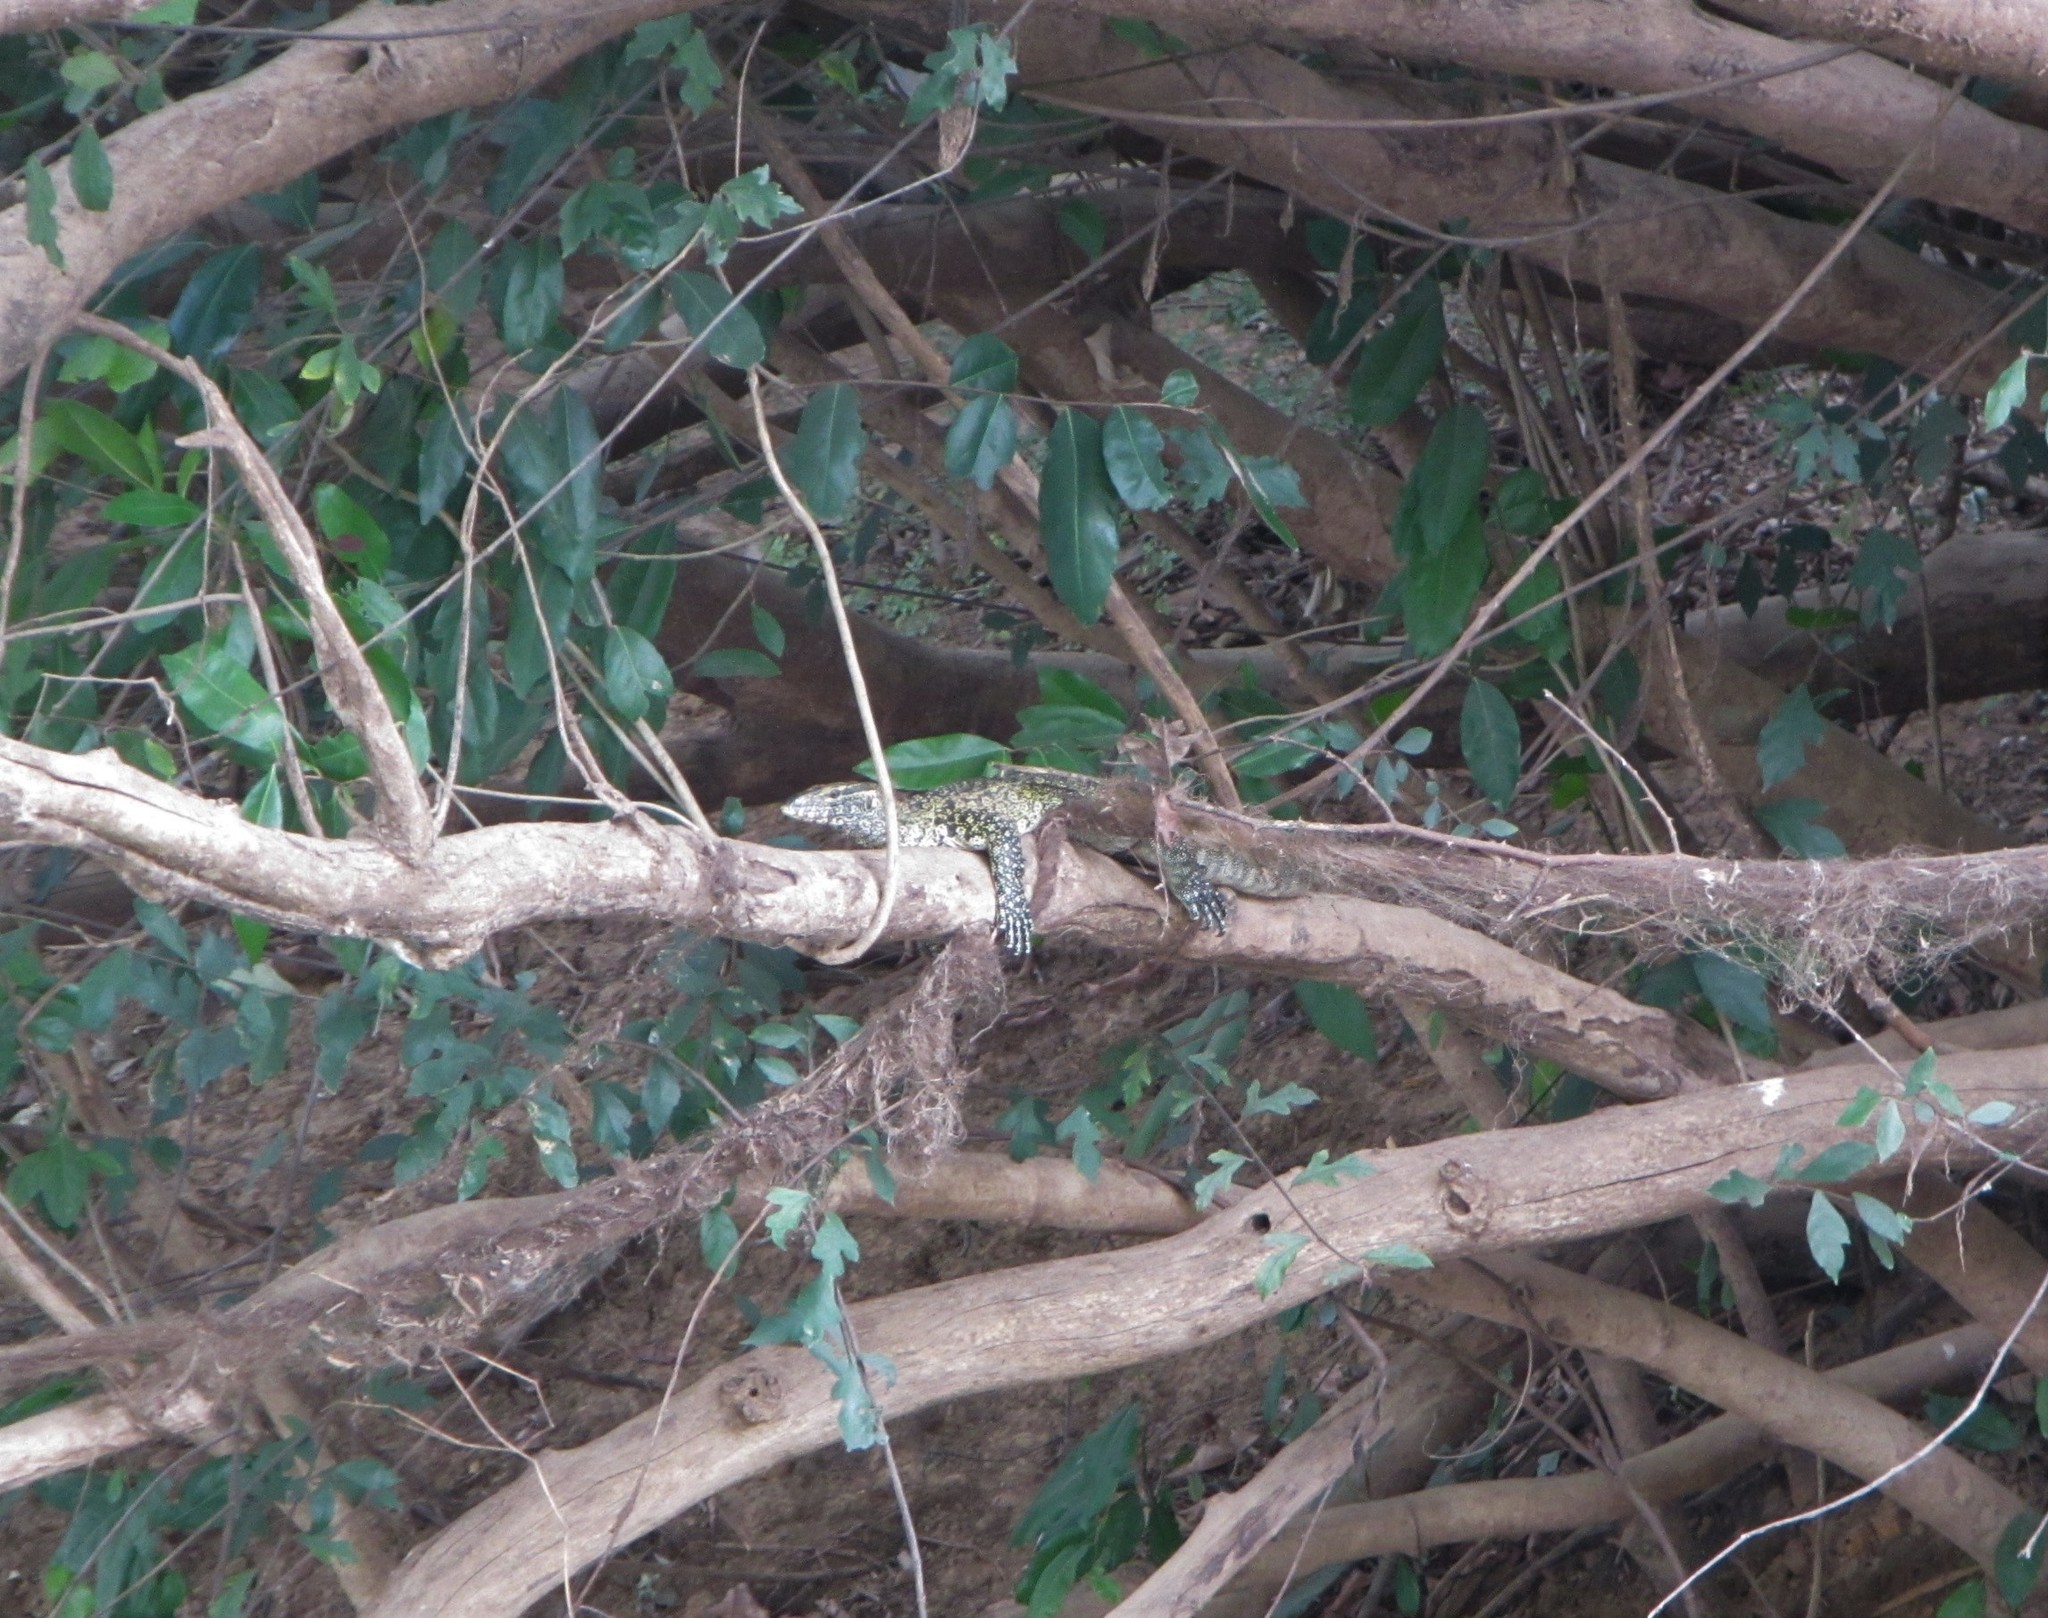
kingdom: Animalia
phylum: Chordata
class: Squamata
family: Varanidae
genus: Varanus
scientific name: Varanus niloticus
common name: Nile monitor
